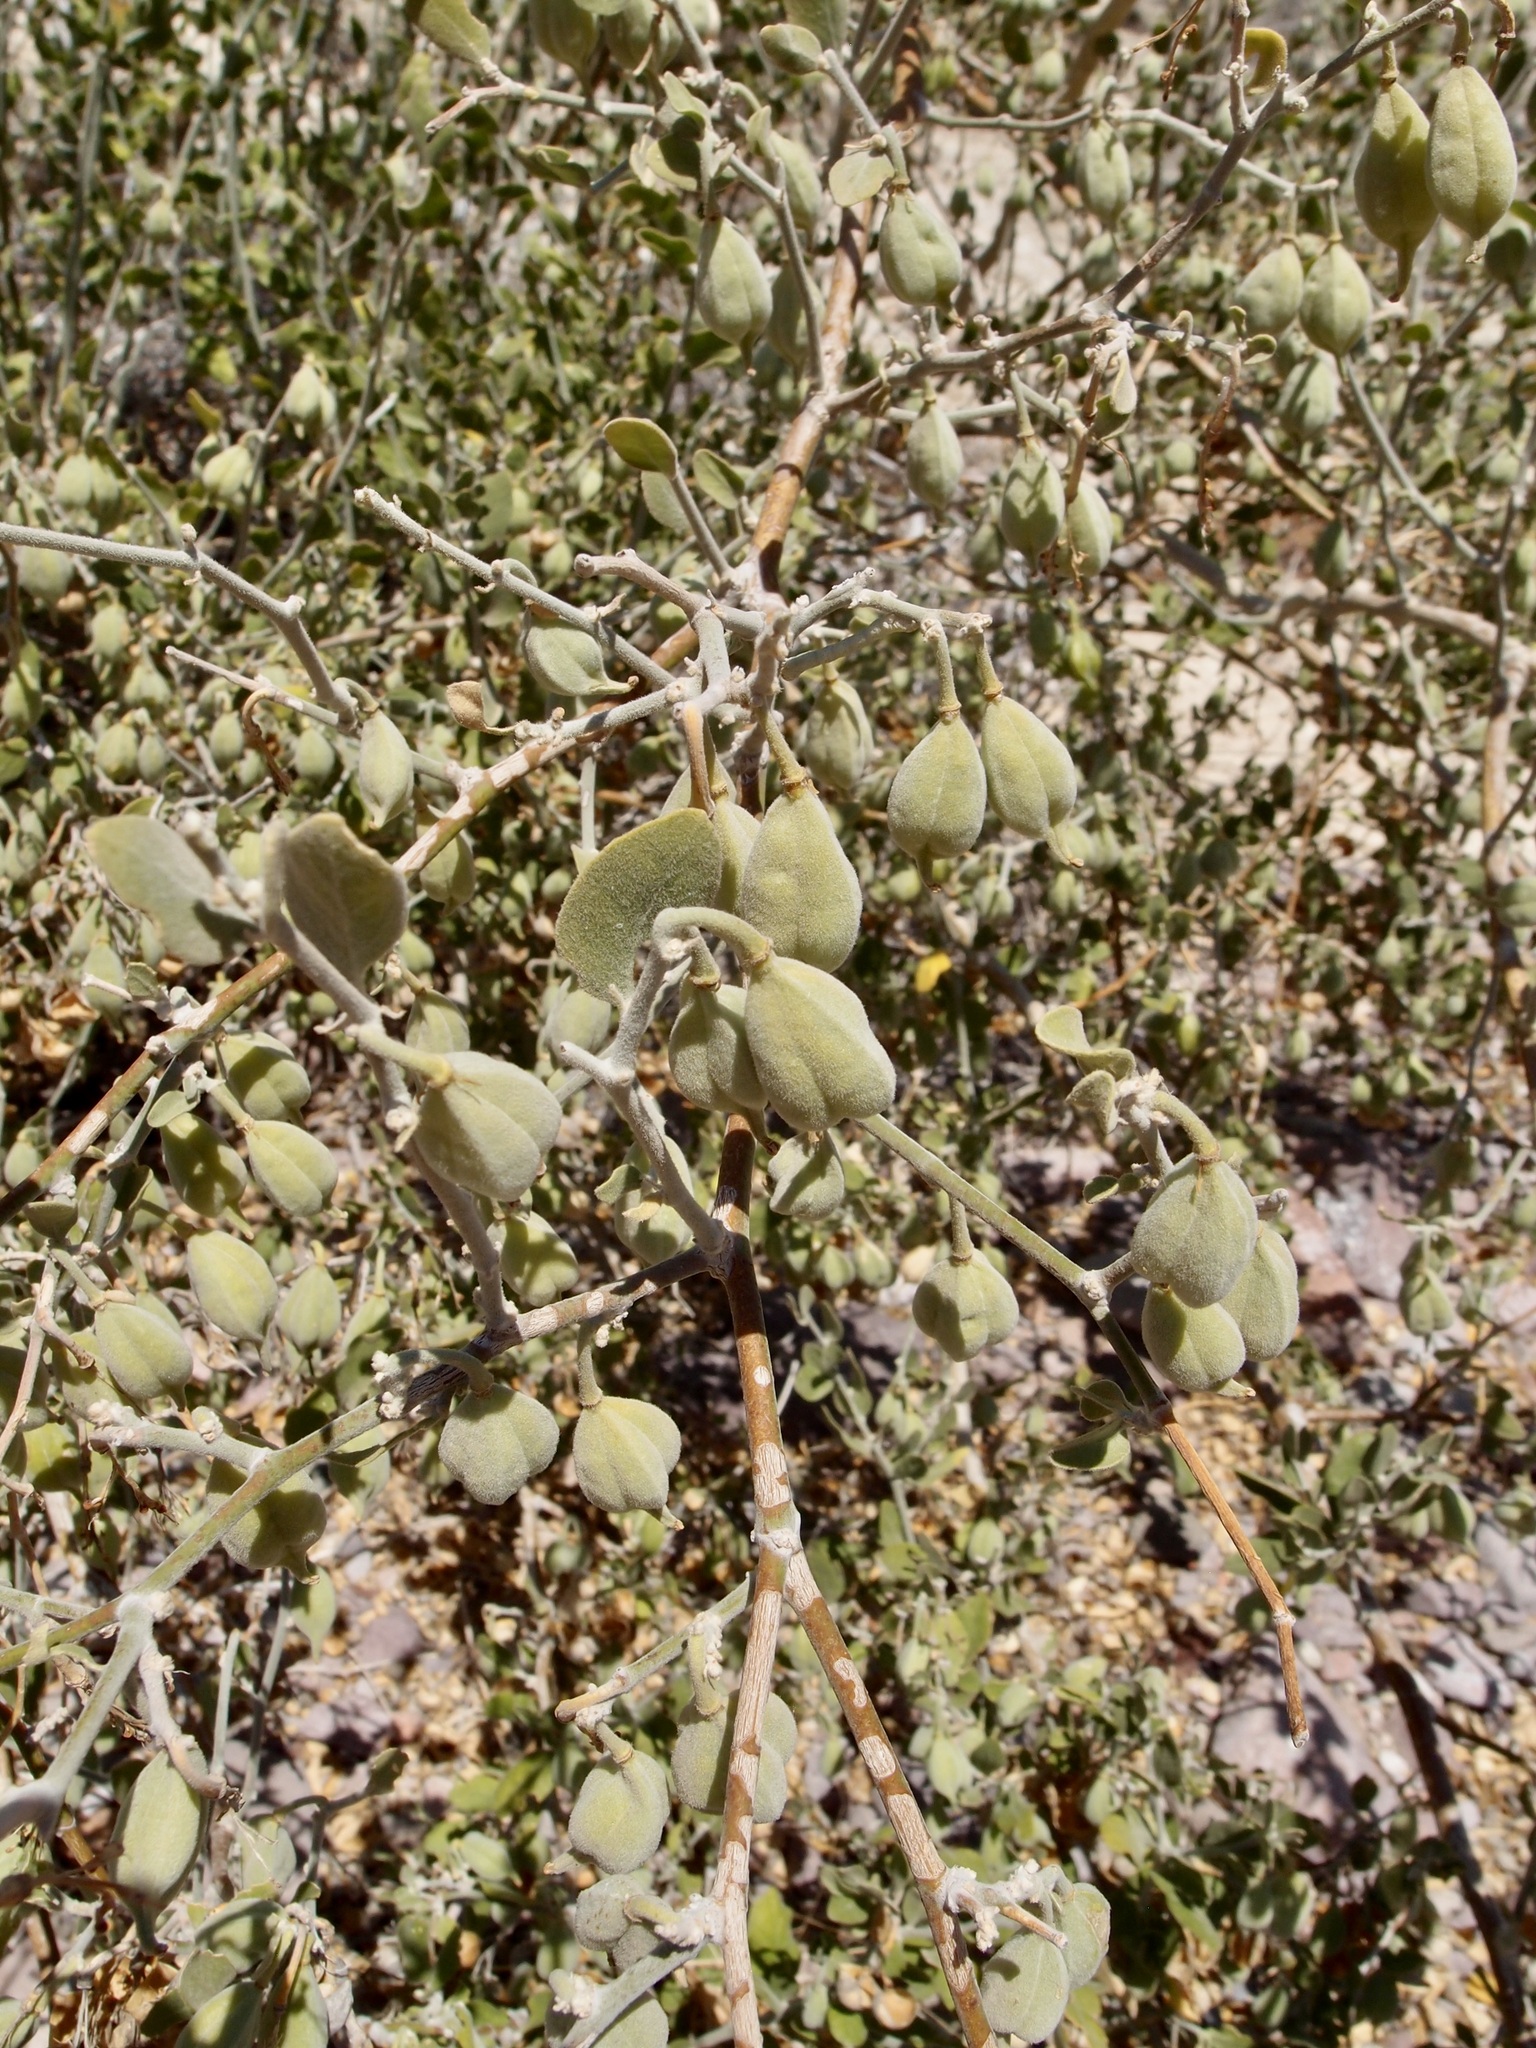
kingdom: Plantae
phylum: Tracheophyta
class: Magnoliopsida
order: Zygophyllales
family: Zygophyllaceae
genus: Viscainoa
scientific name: Viscainoa geniculata
